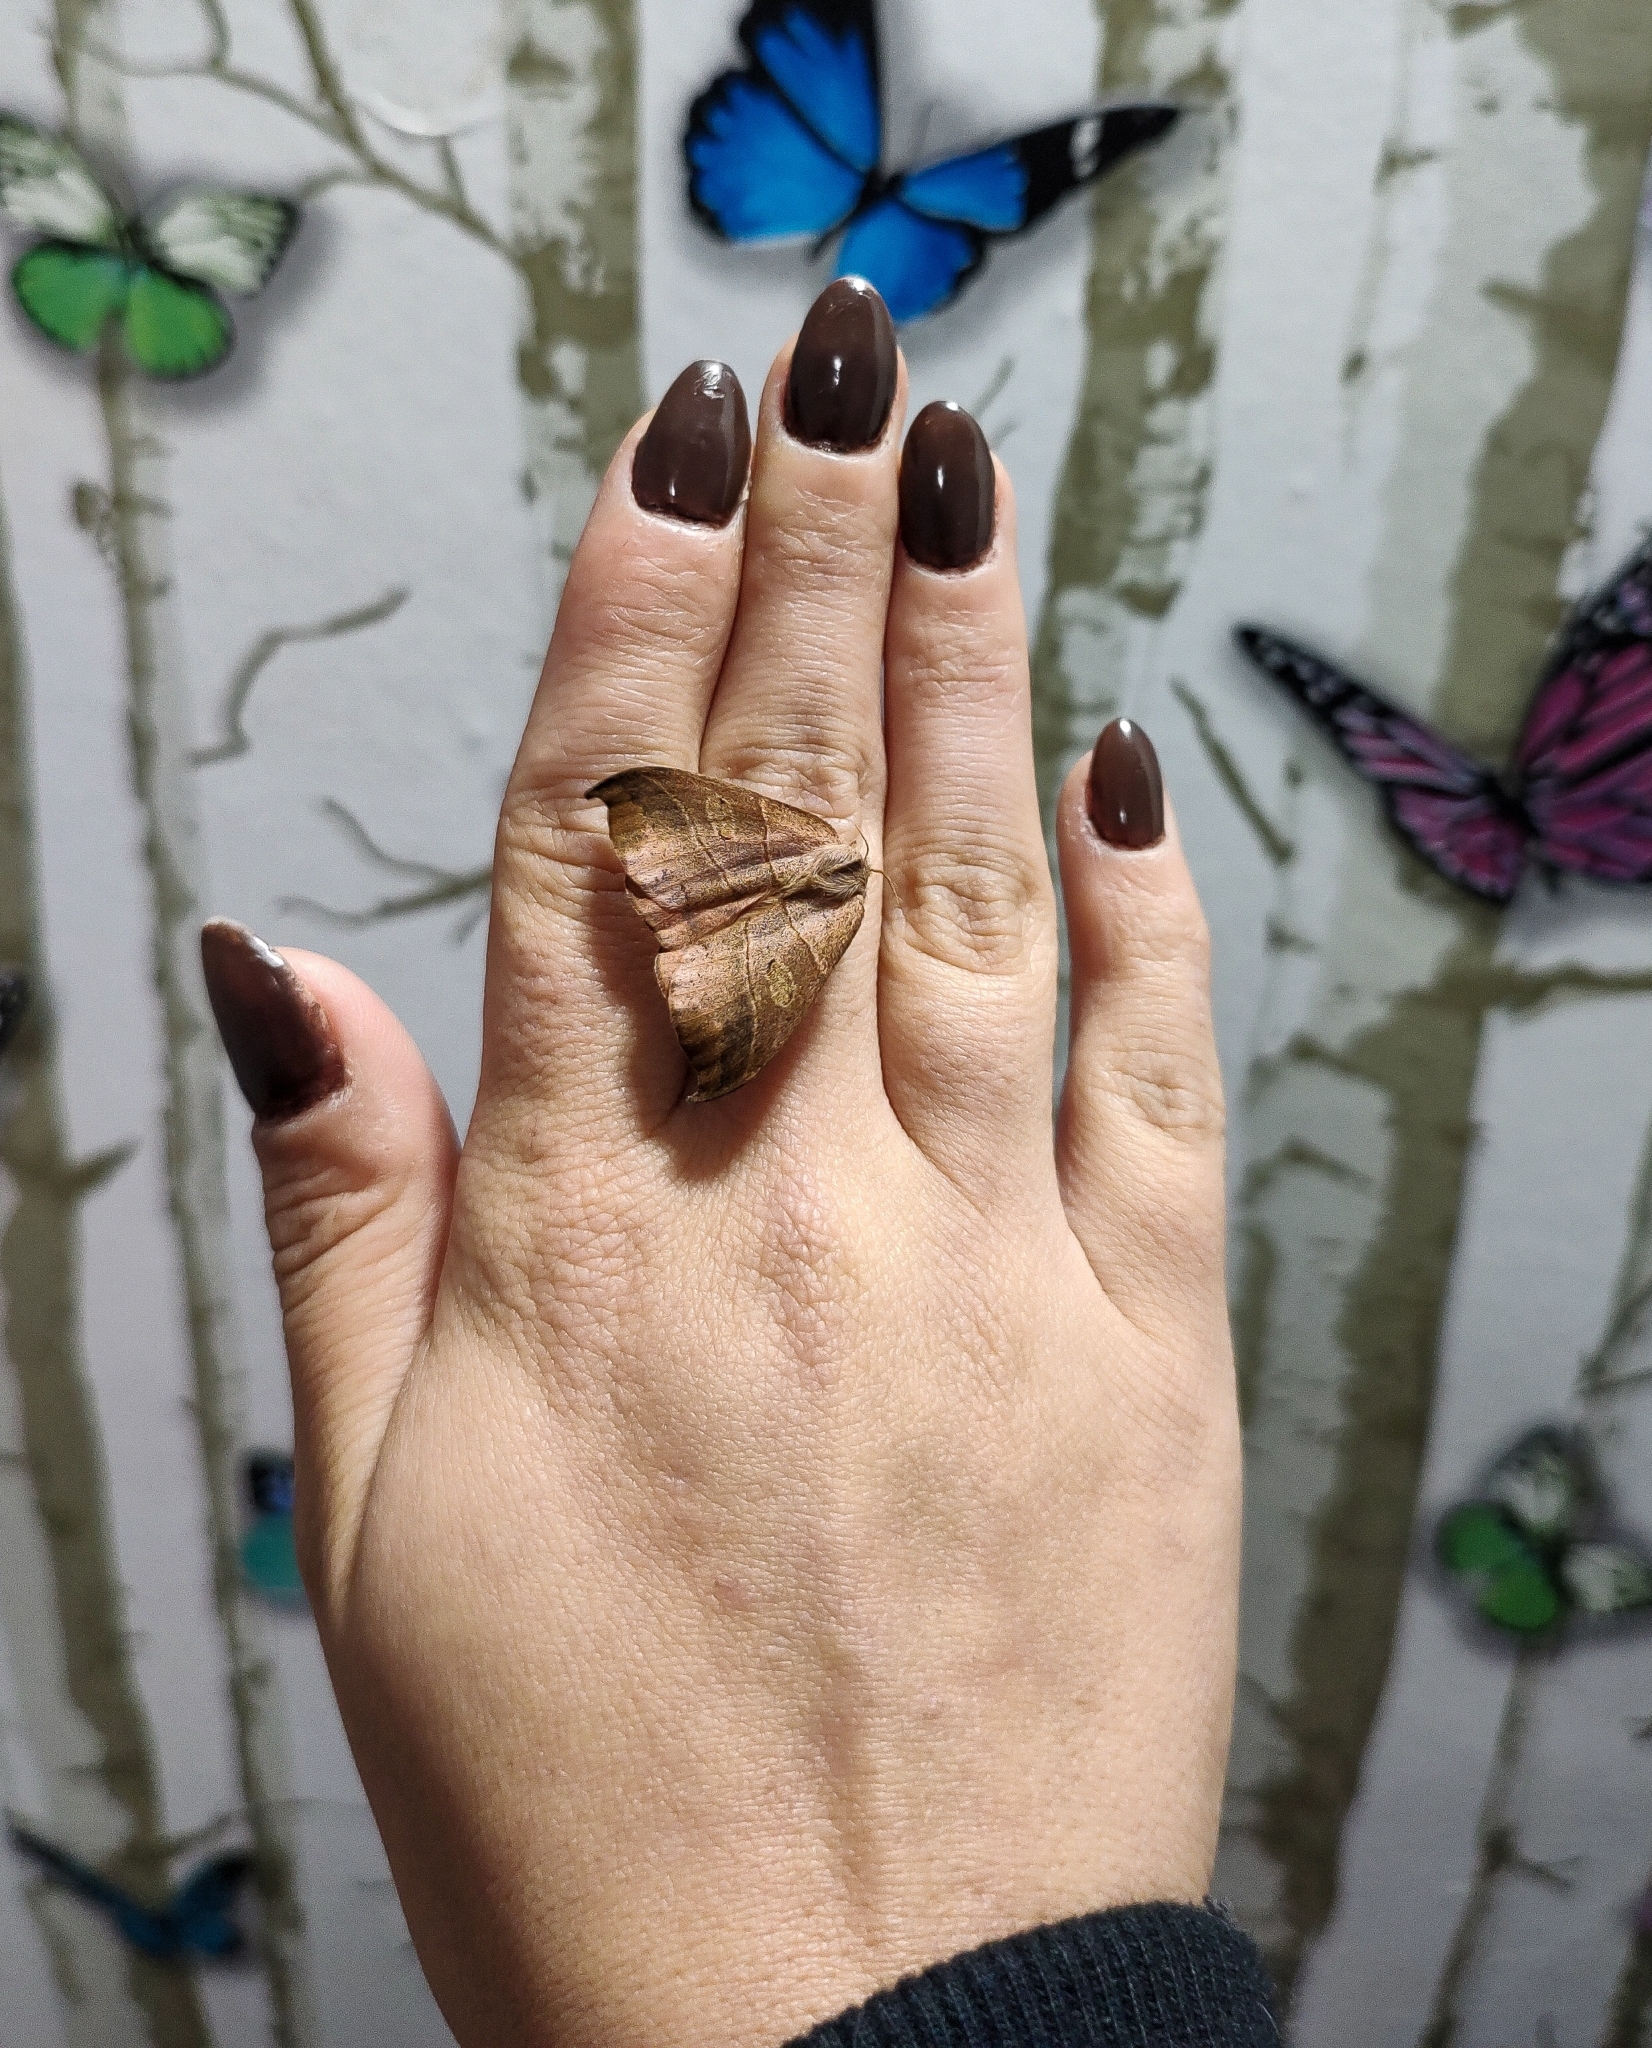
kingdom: Animalia
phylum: Arthropoda
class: Insecta
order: Lepidoptera
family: Saturniidae
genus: Prohylesia
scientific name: Prohylesia zikani
